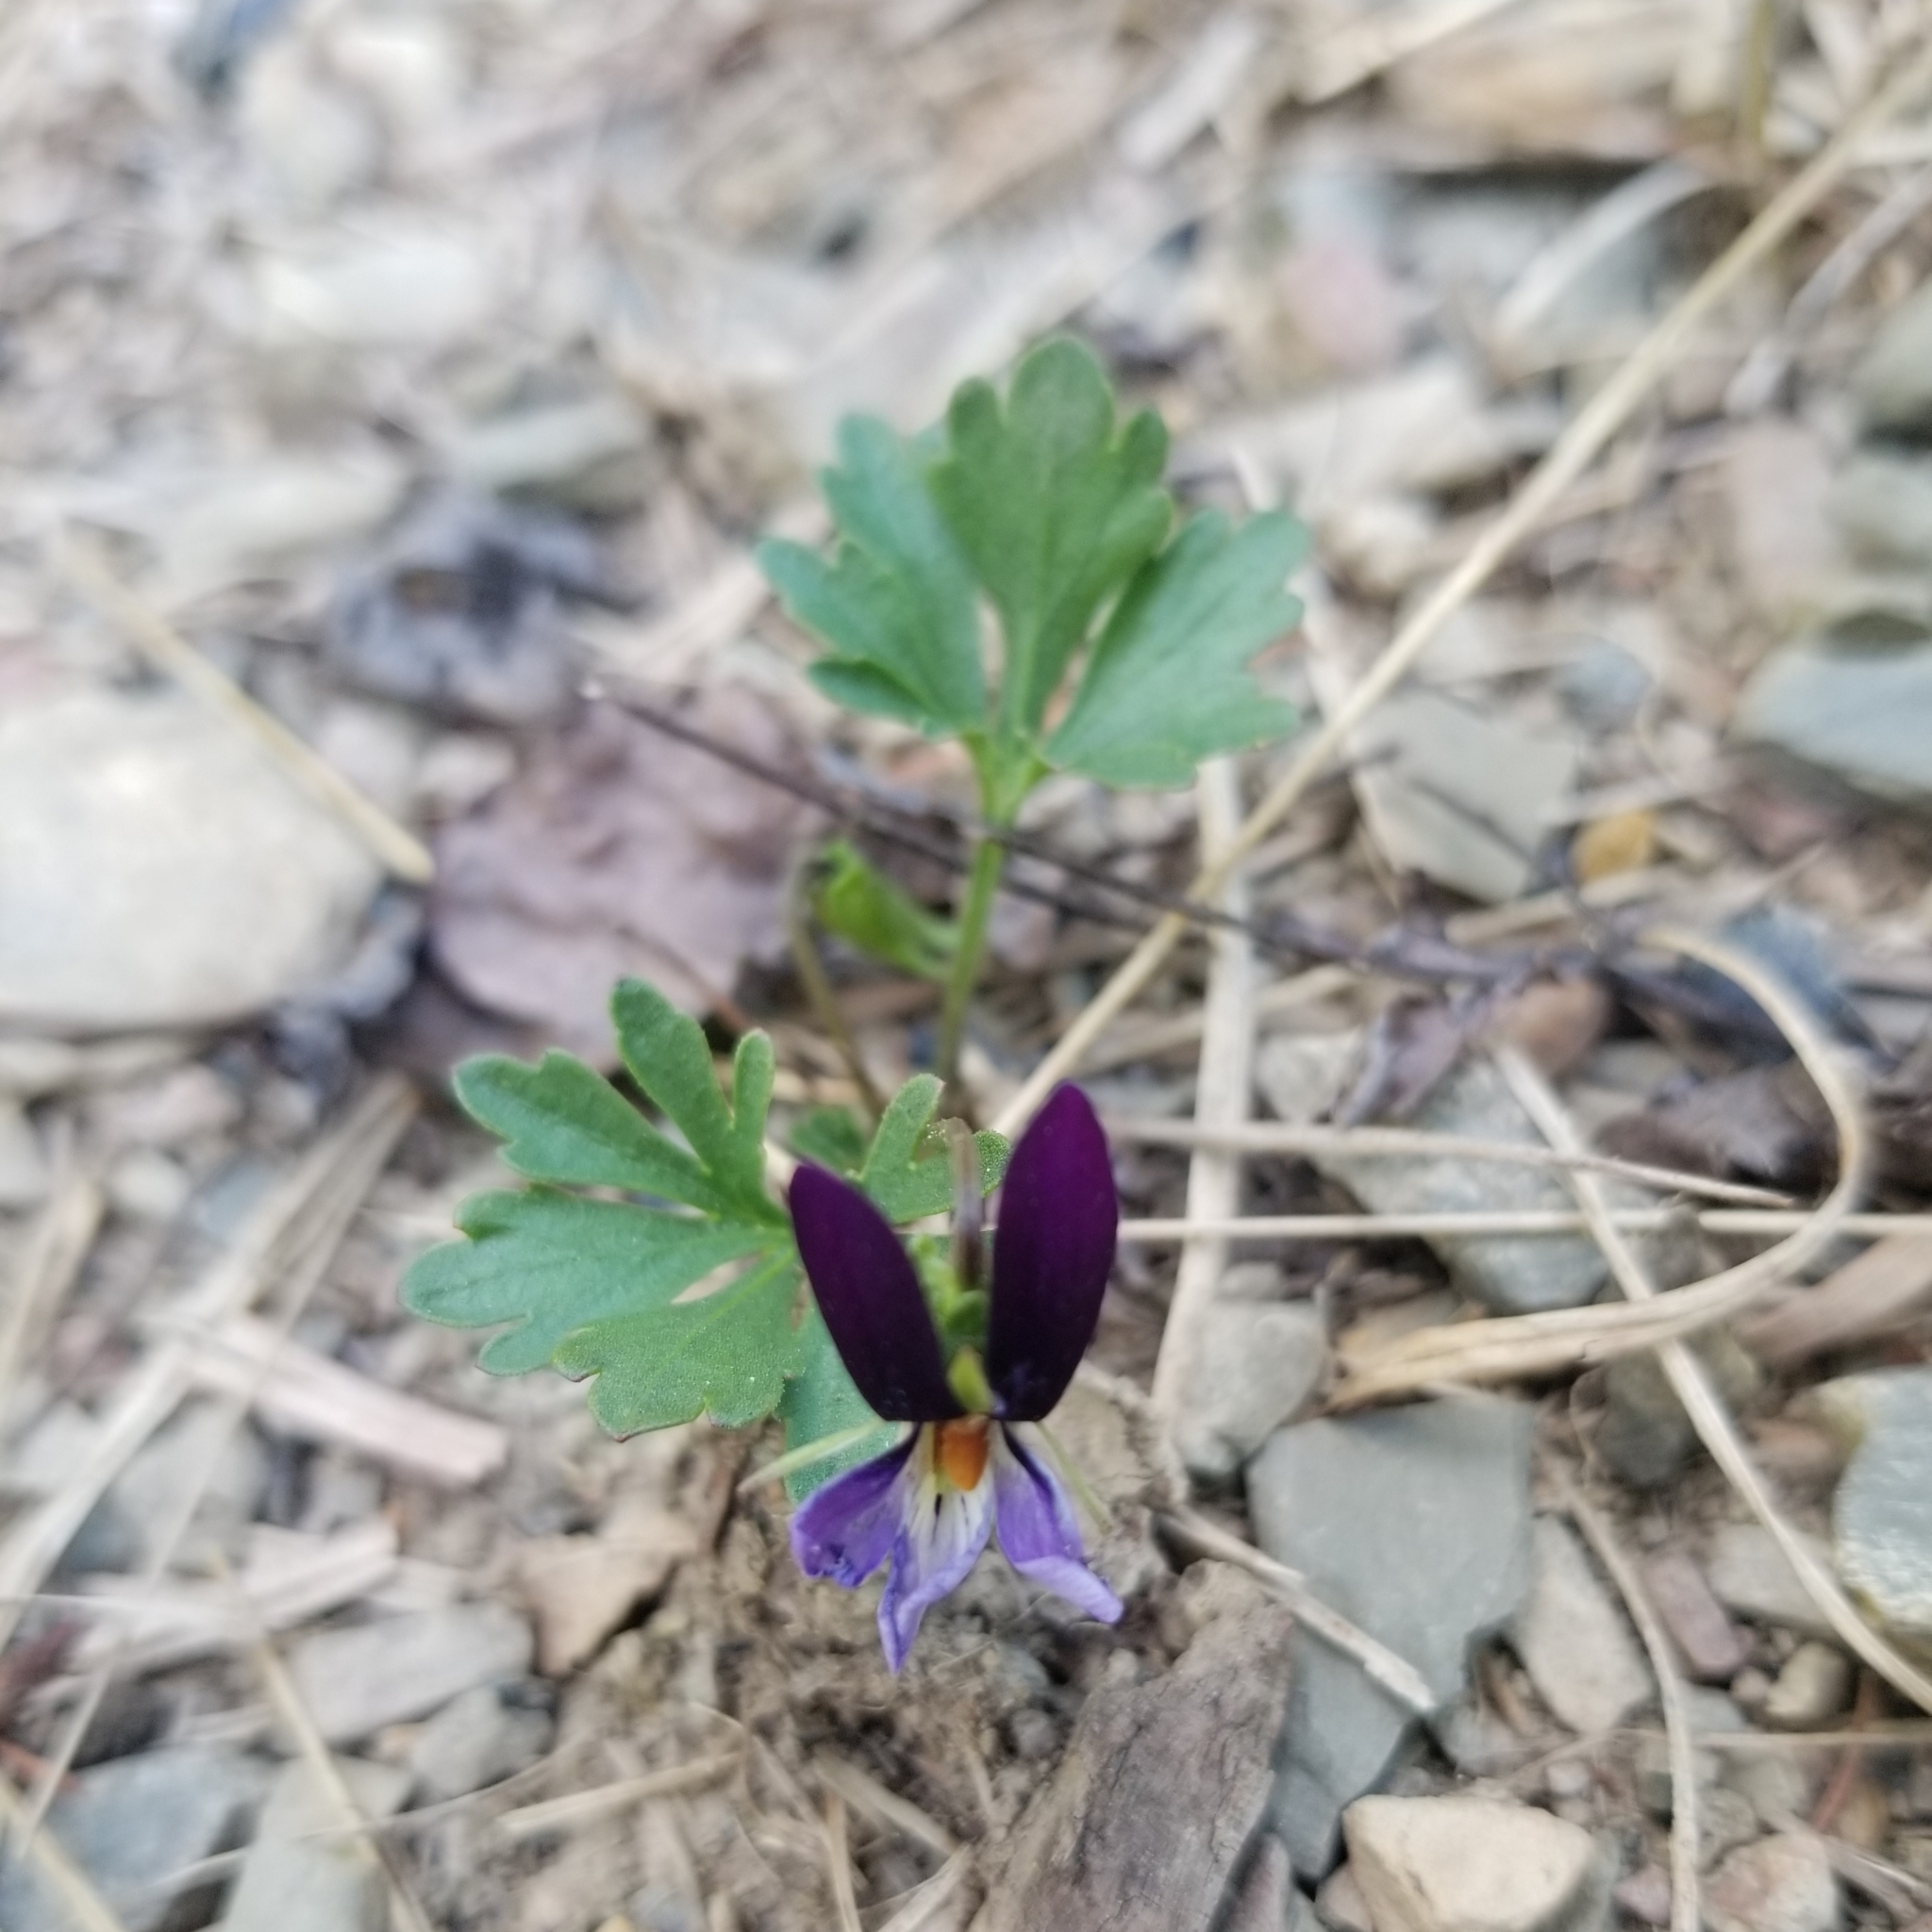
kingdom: Plantae
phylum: Tracheophyta
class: Magnoliopsida
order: Malpighiales
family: Violaceae
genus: Viola
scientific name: Viola pedata
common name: Pansy violet
